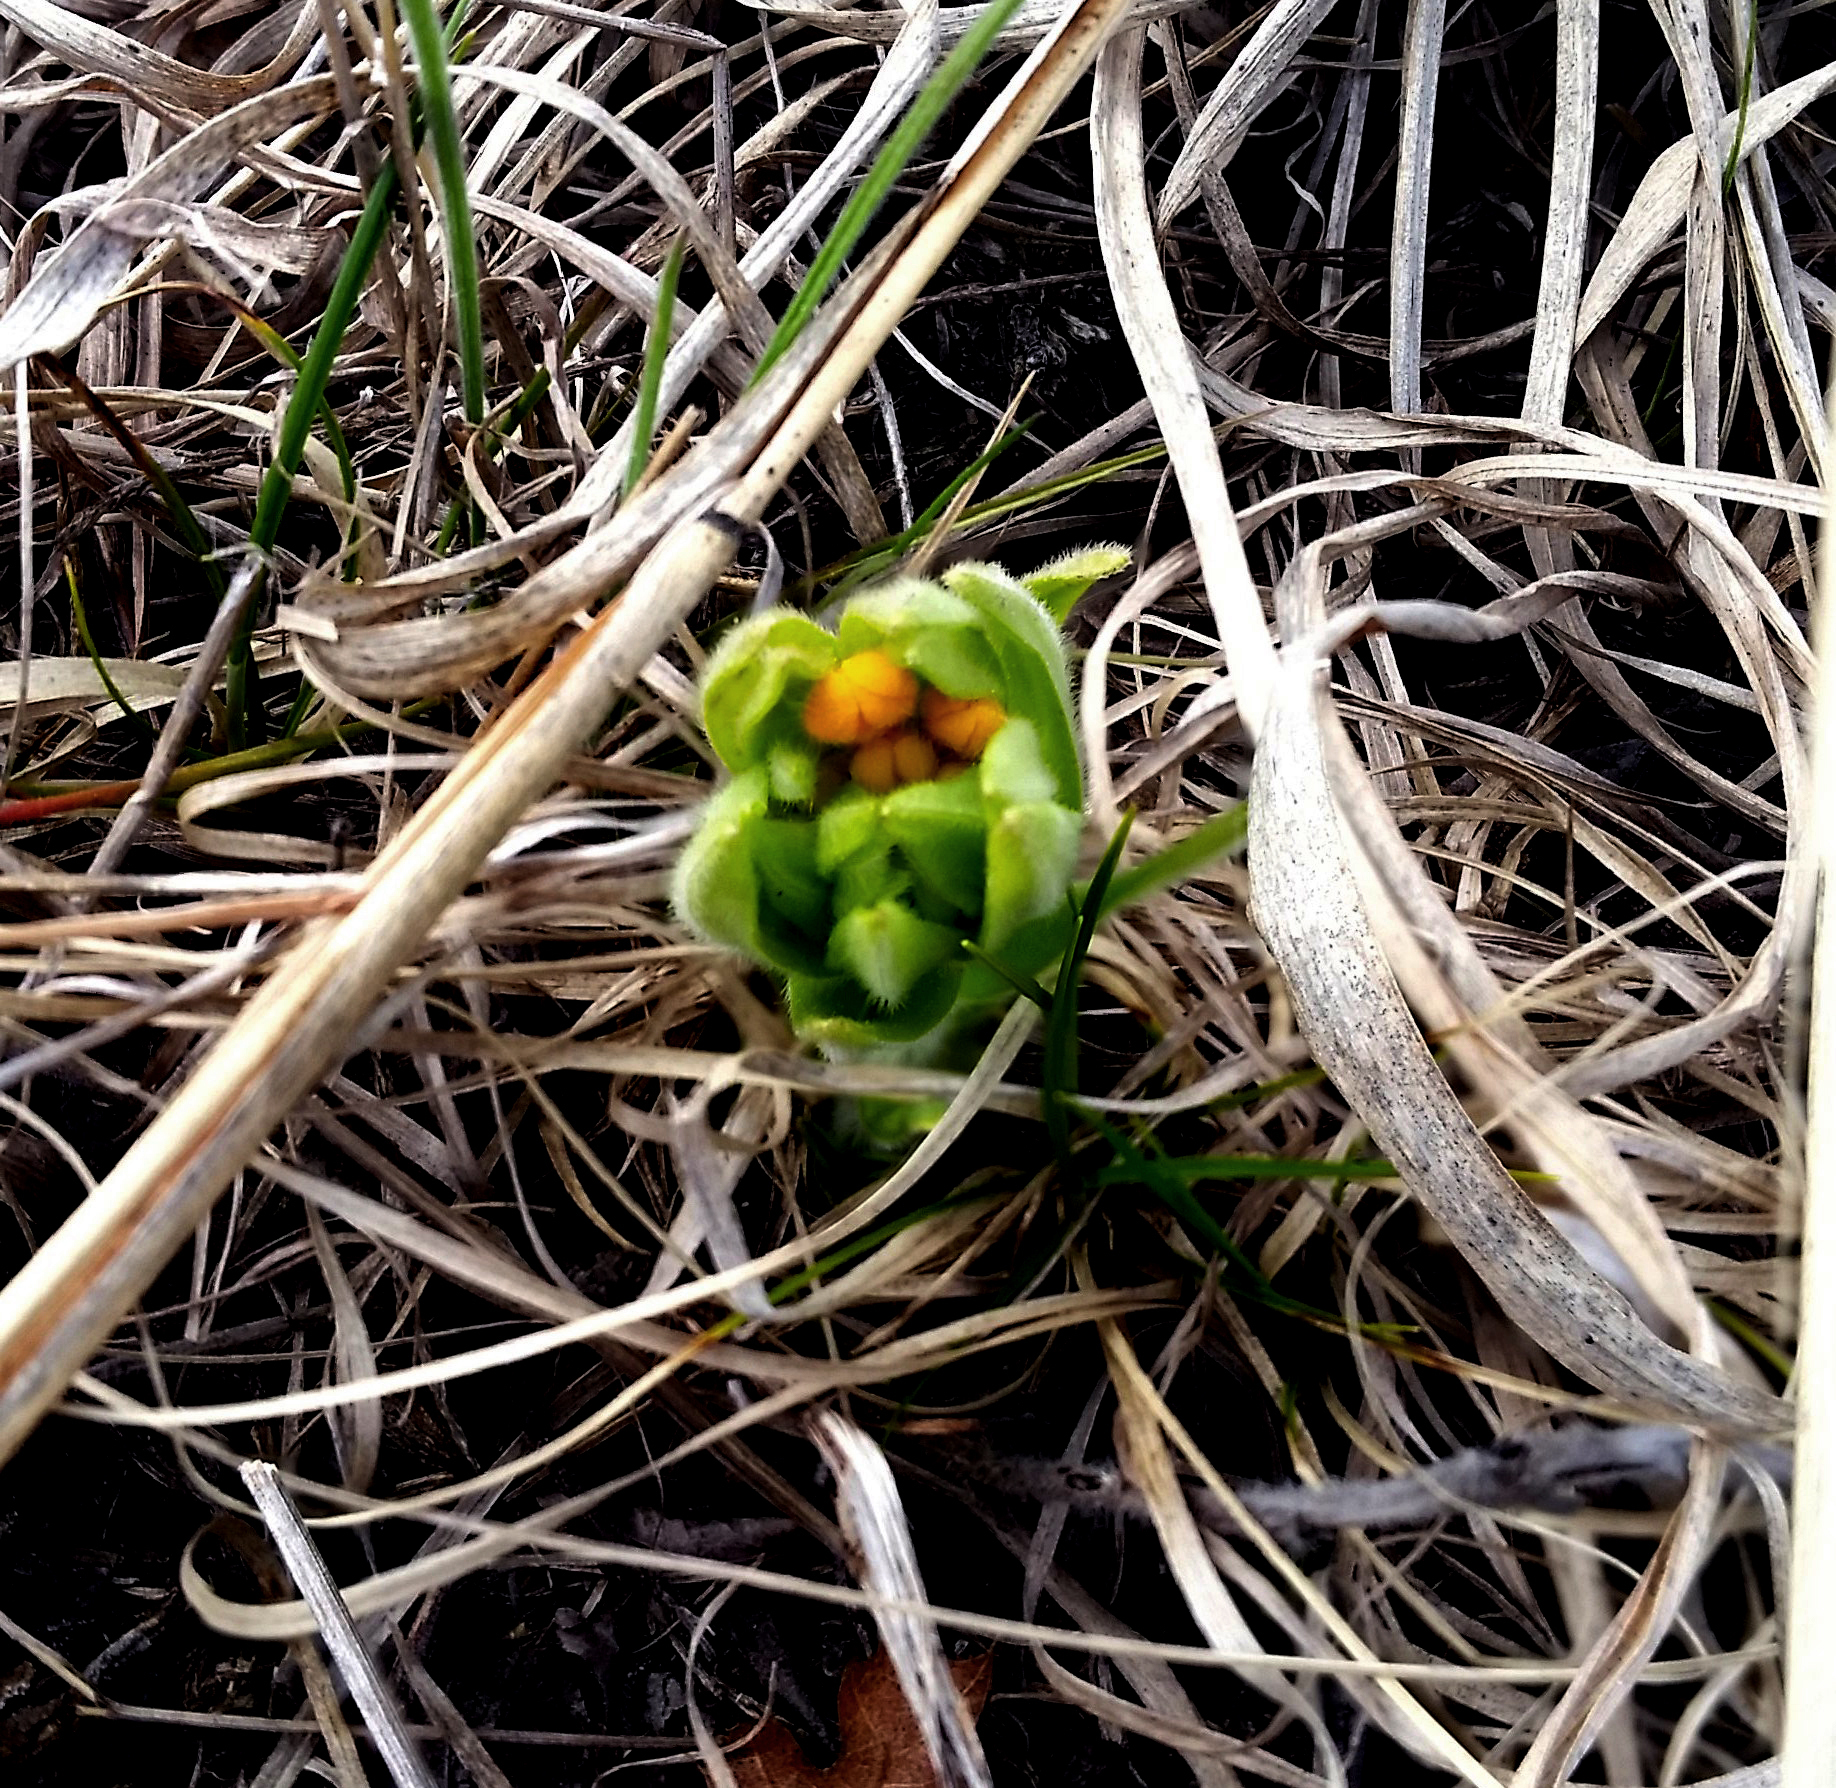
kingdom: Plantae
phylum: Tracheophyta
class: Magnoliopsida
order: Boraginales
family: Boraginaceae
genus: Lithospermum
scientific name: Lithospermum canescens
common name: Hoary puccoon
